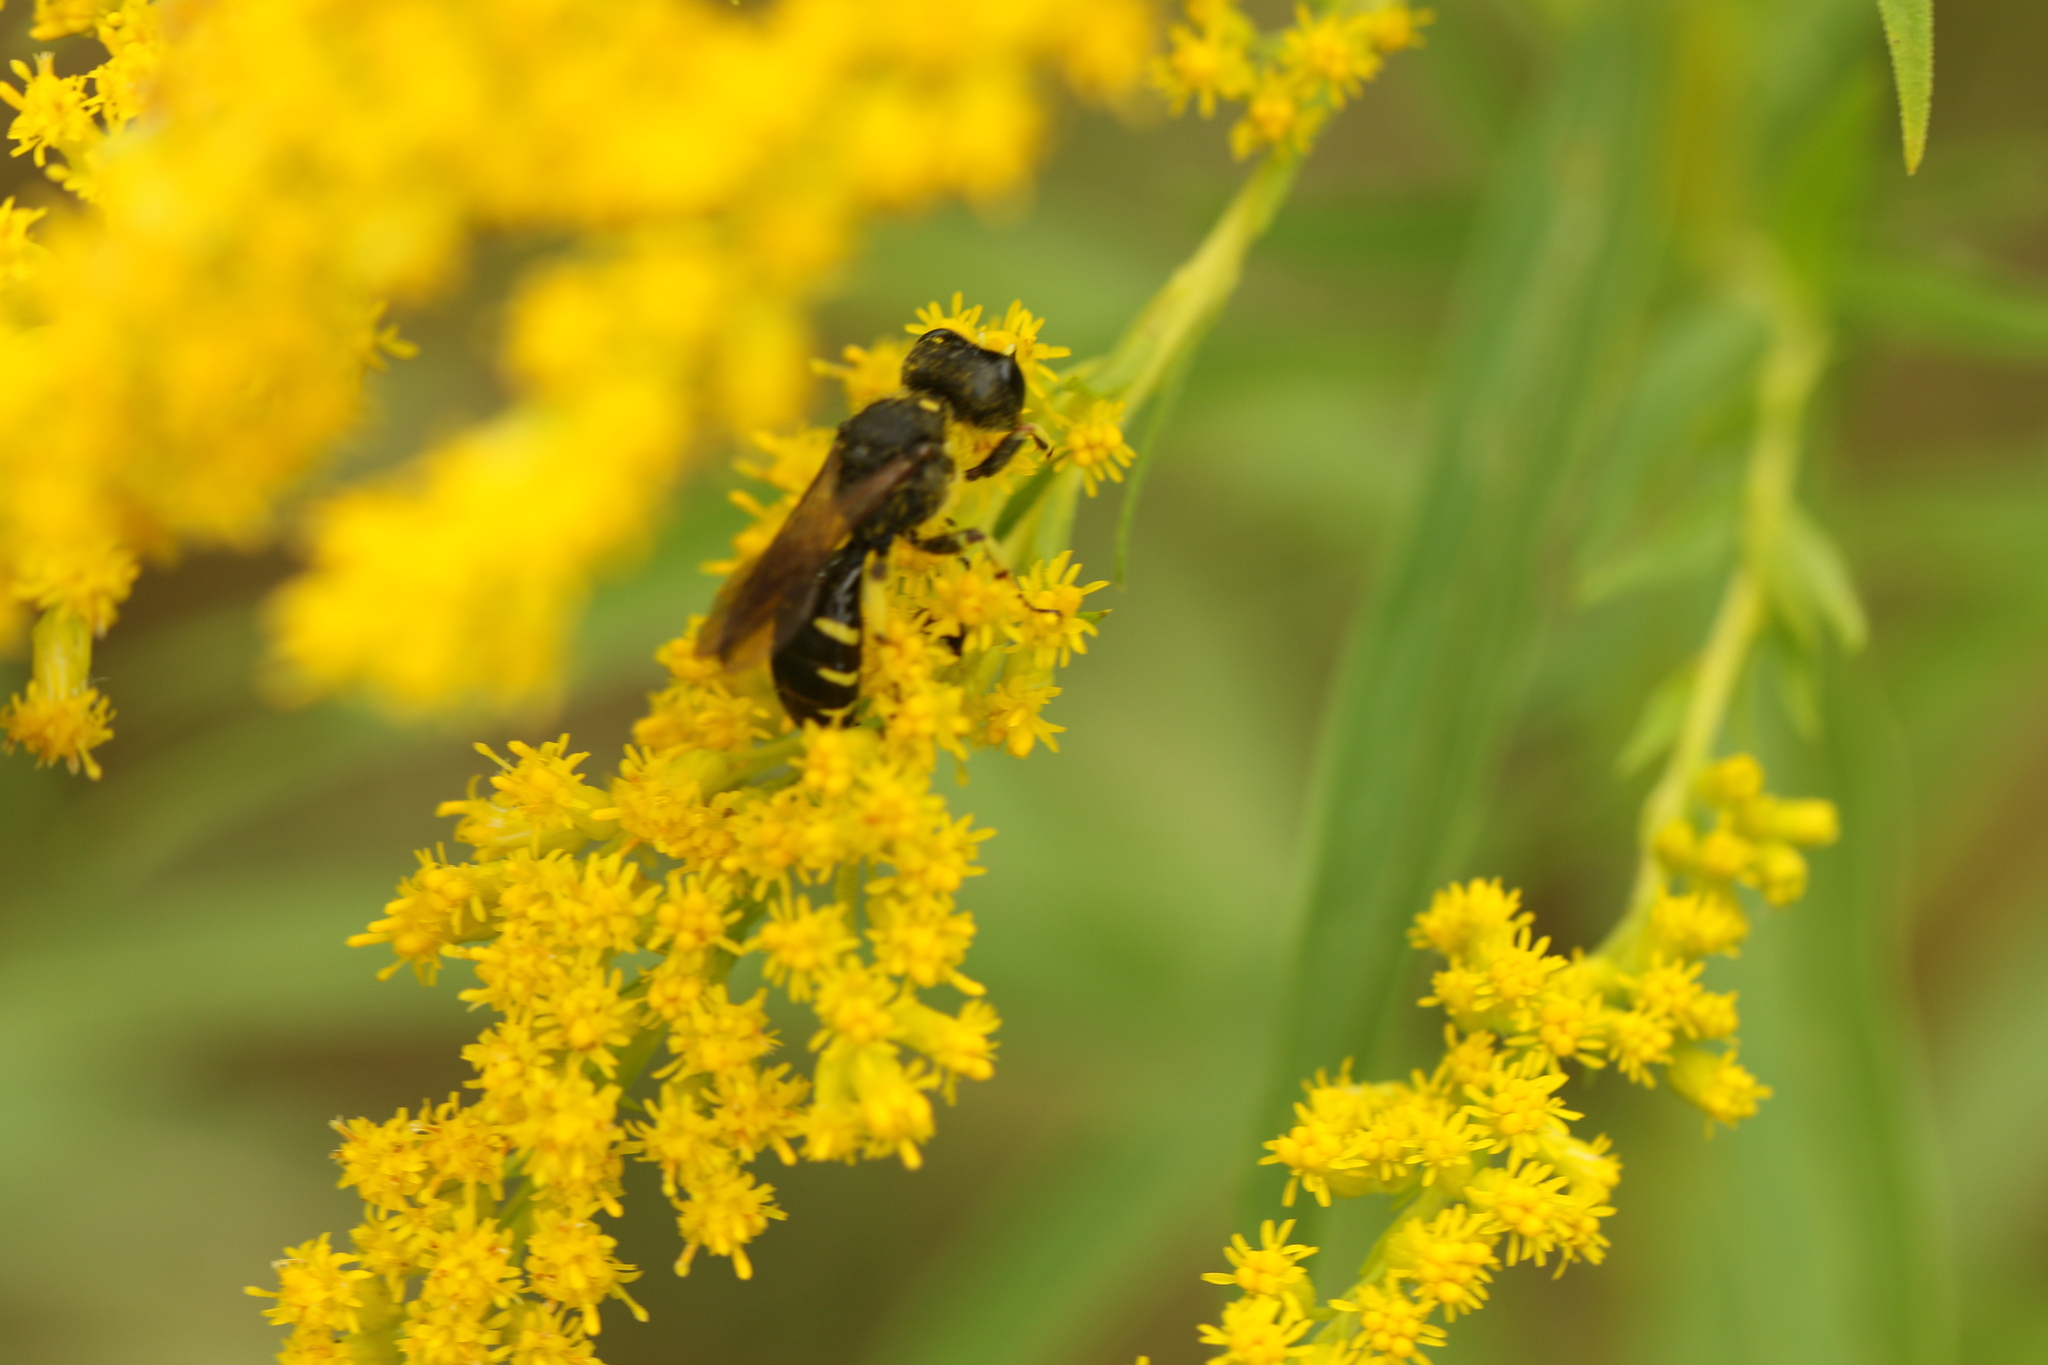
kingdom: Animalia
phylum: Arthropoda
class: Insecta
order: Hymenoptera
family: Crabronidae
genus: Ectemnius
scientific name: Ectemnius maculosus
